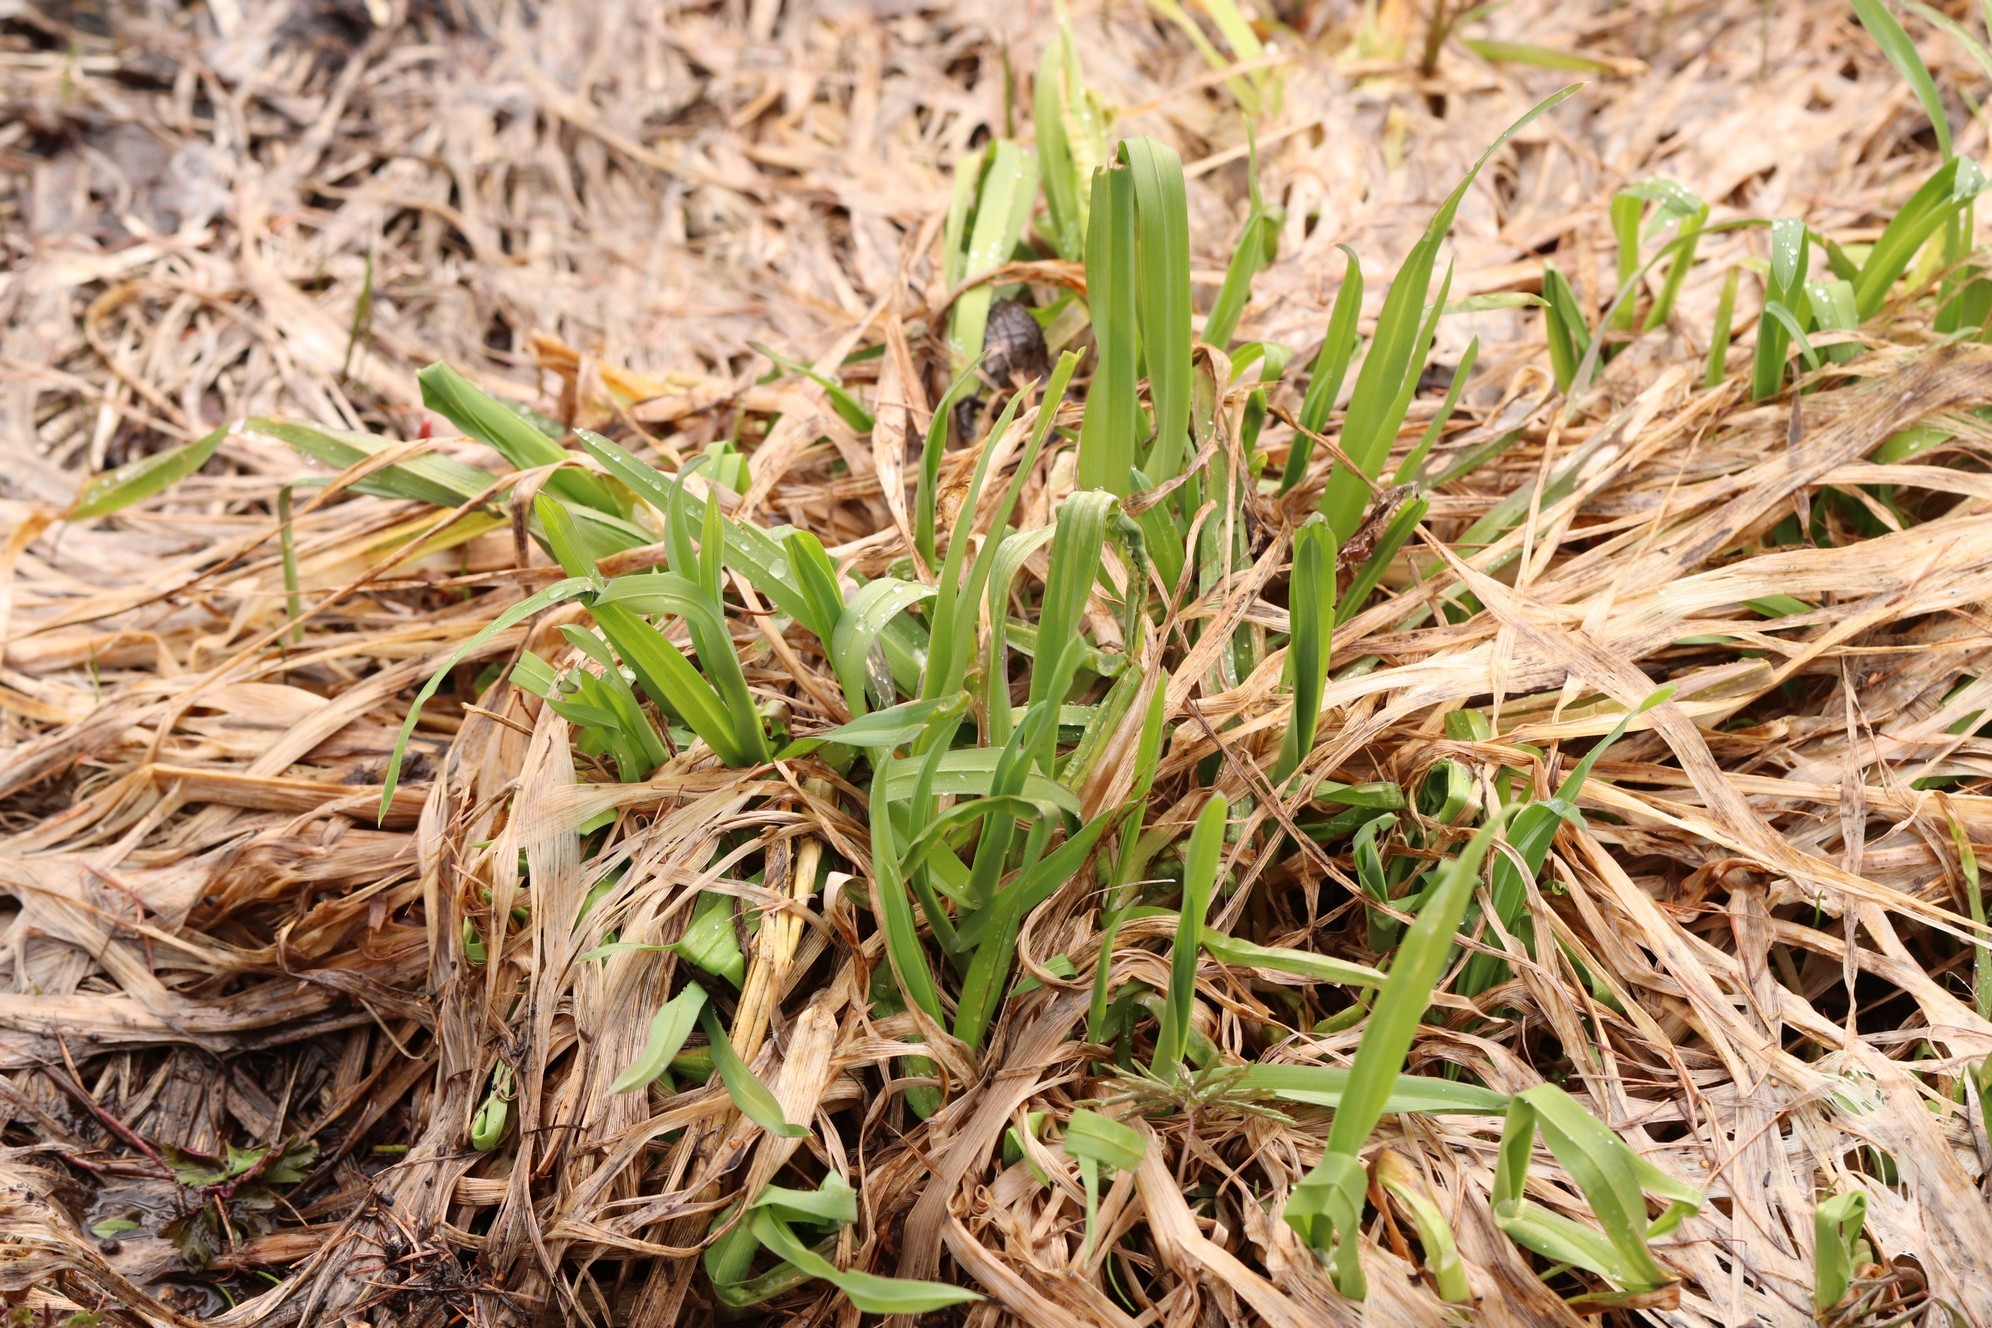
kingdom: Plantae
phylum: Tracheophyta
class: Liliopsida
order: Poales
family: Poaceae
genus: Dactylis
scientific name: Dactylis glomerata
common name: Orchardgrass
